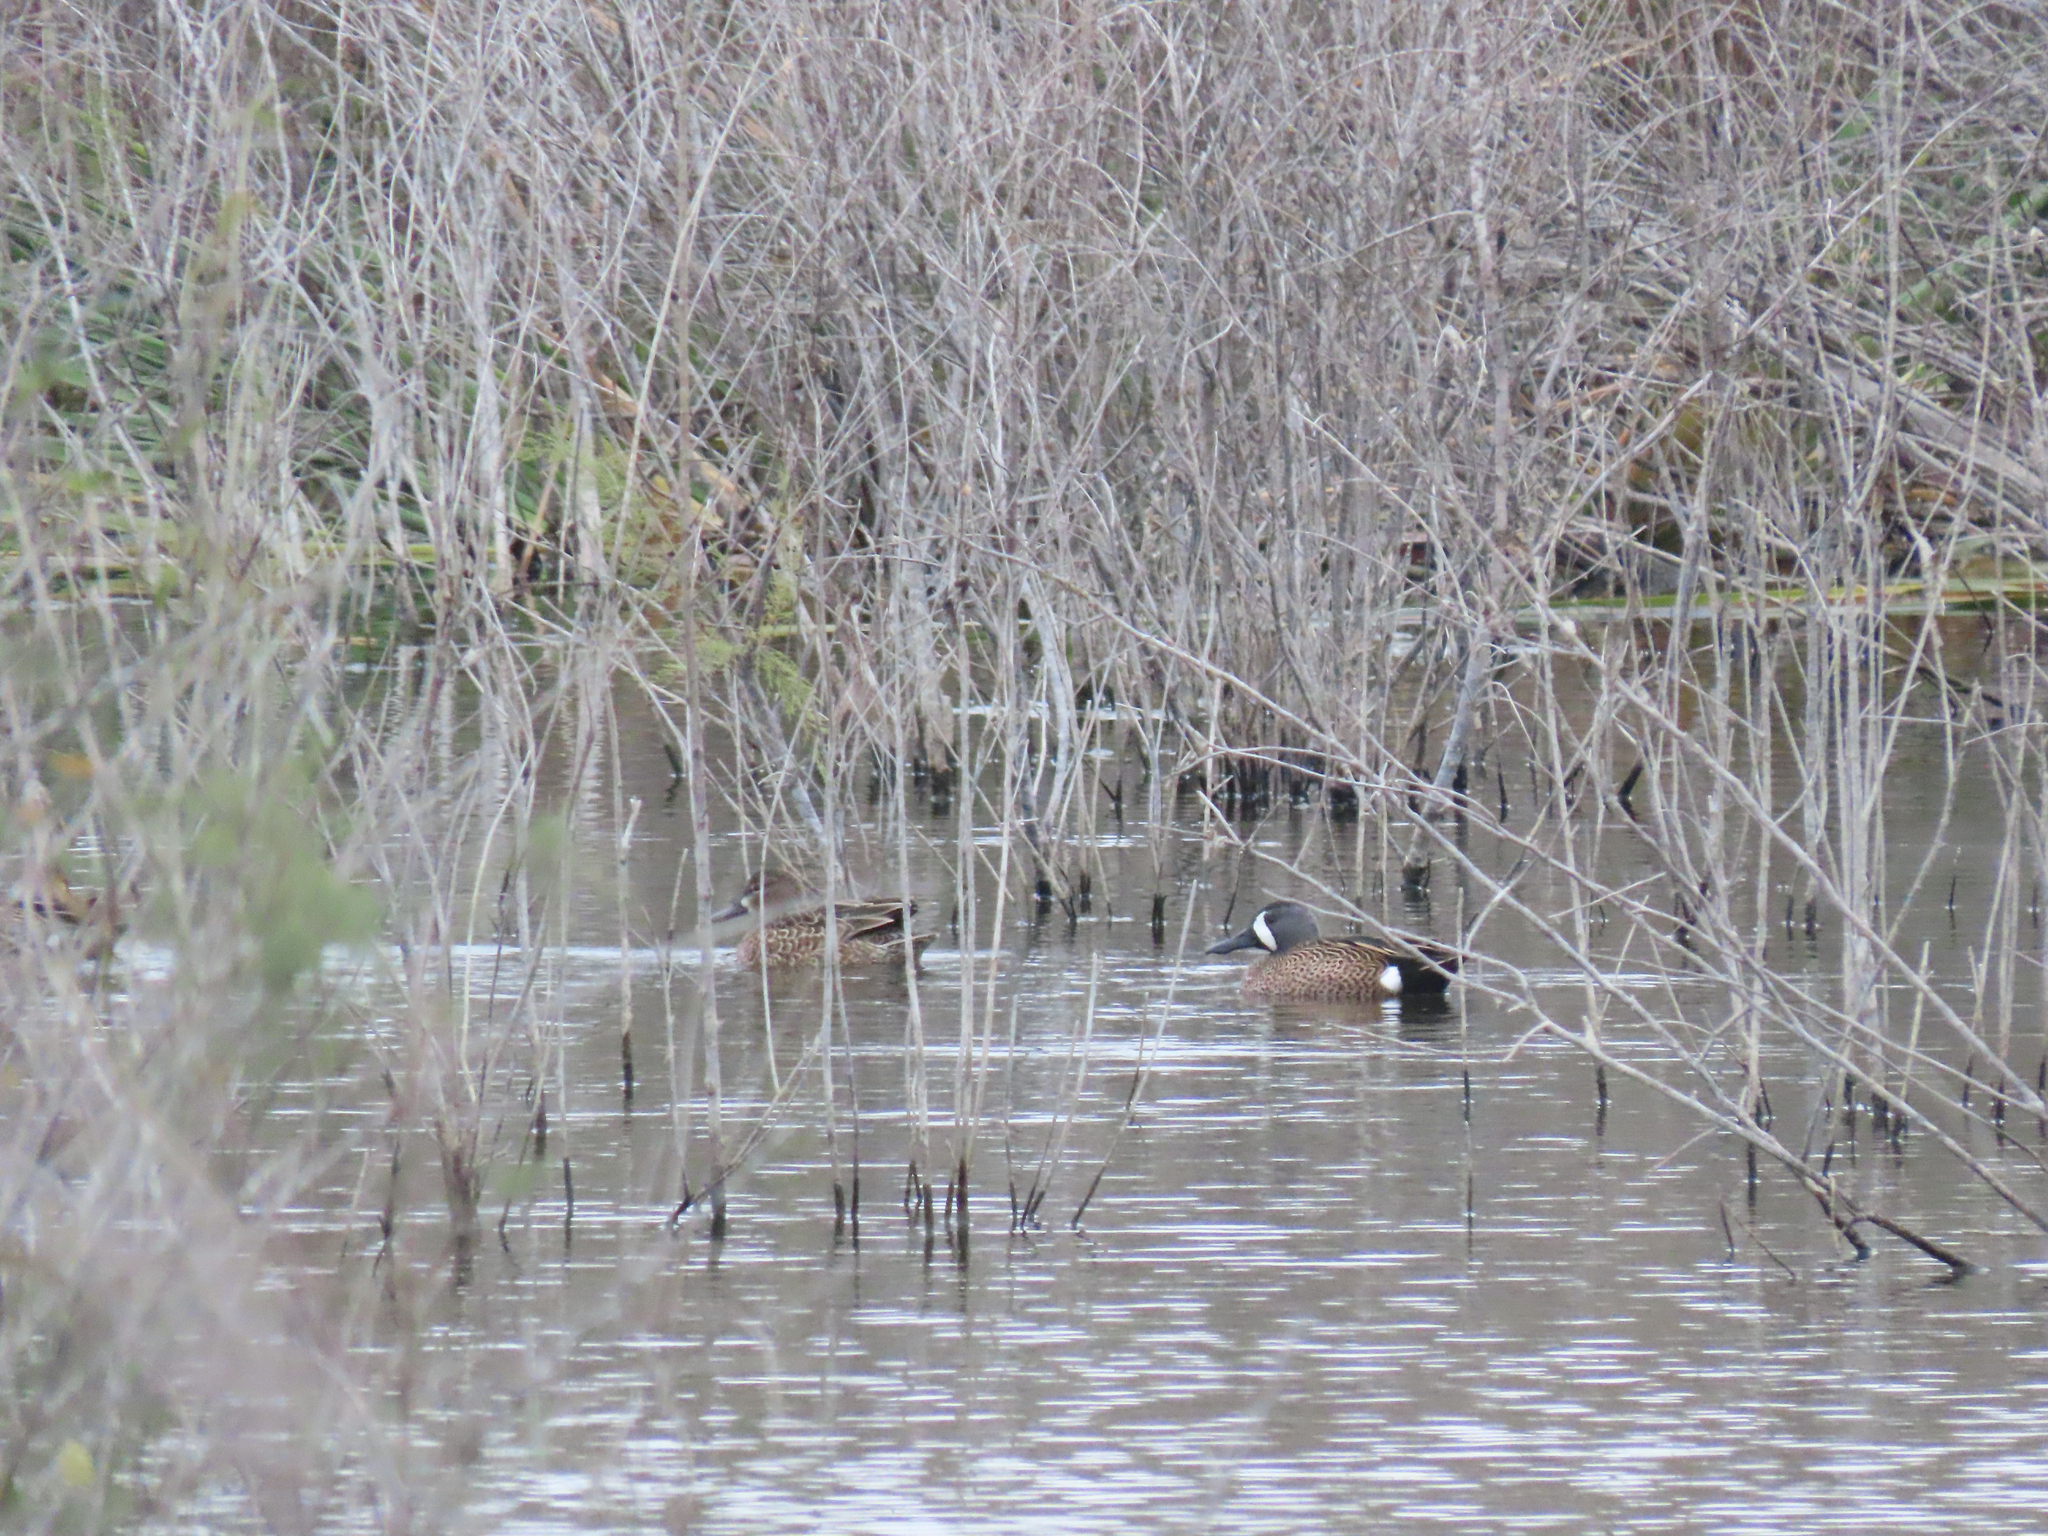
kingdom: Animalia
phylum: Chordata
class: Aves
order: Anseriformes
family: Anatidae
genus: Spatula
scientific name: Spatula discors
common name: Blue-winged teal
